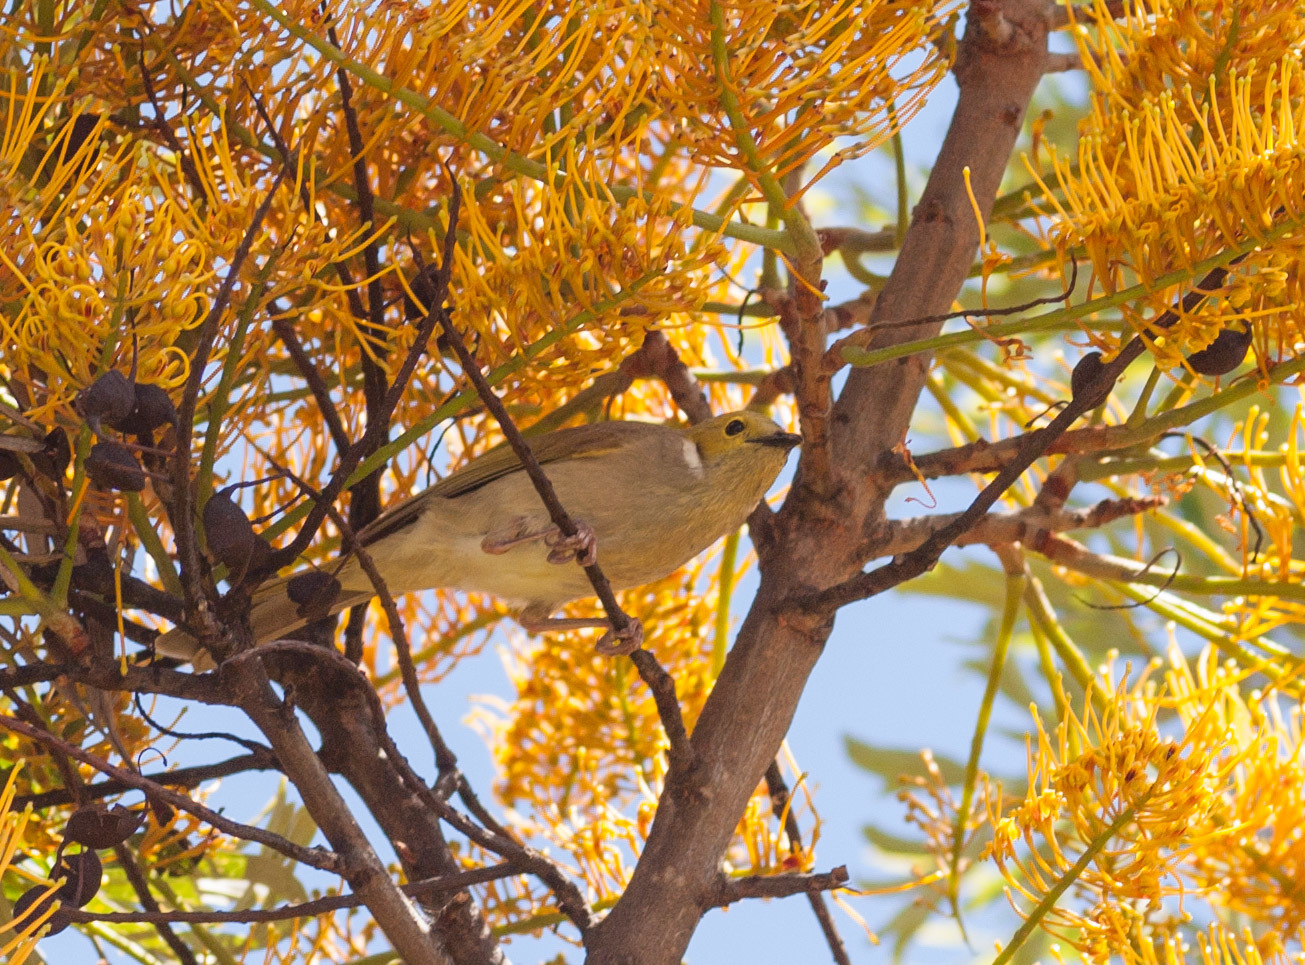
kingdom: Animalia
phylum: Chordata
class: Aves
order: Passeriformes
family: Meliphagidae
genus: Ptilotula
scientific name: Ptilotula penicillata
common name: White-plumed honeyeater
